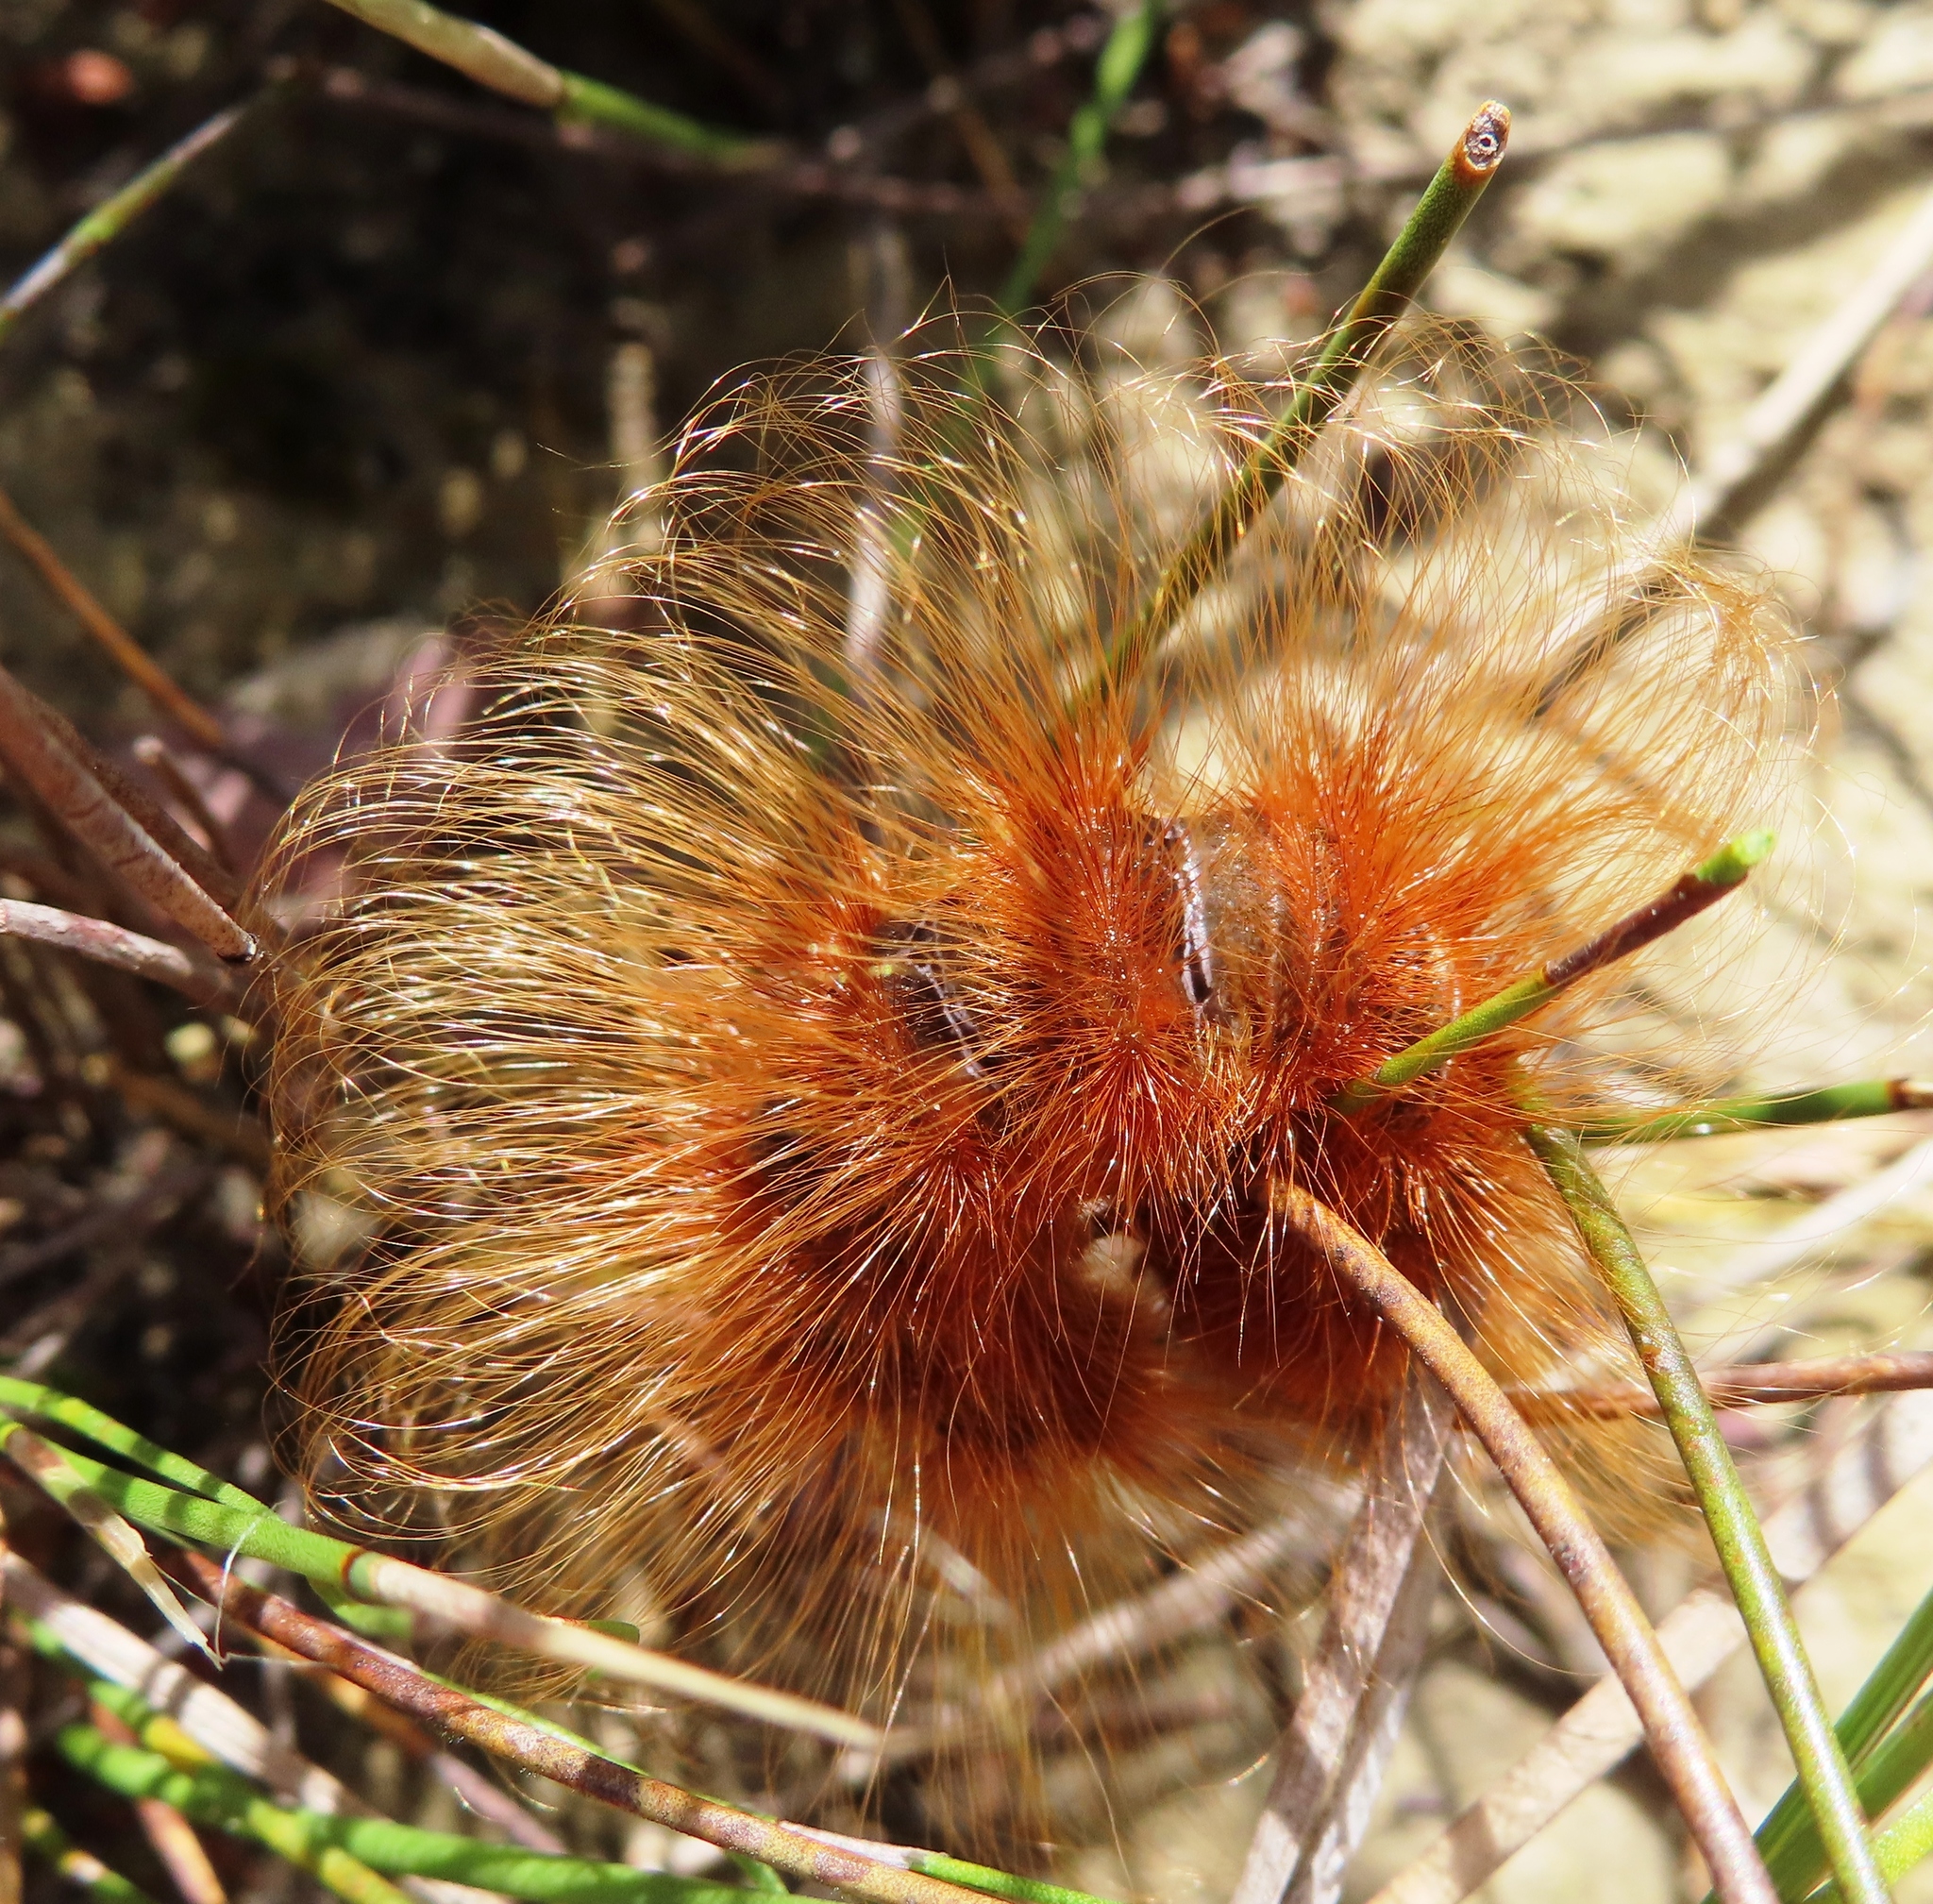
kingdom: Animalia
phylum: Arthropoda
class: Insecta
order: Lepidoptera
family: Eupterotidae
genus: Phyllalia
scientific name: Phyllalia patens
